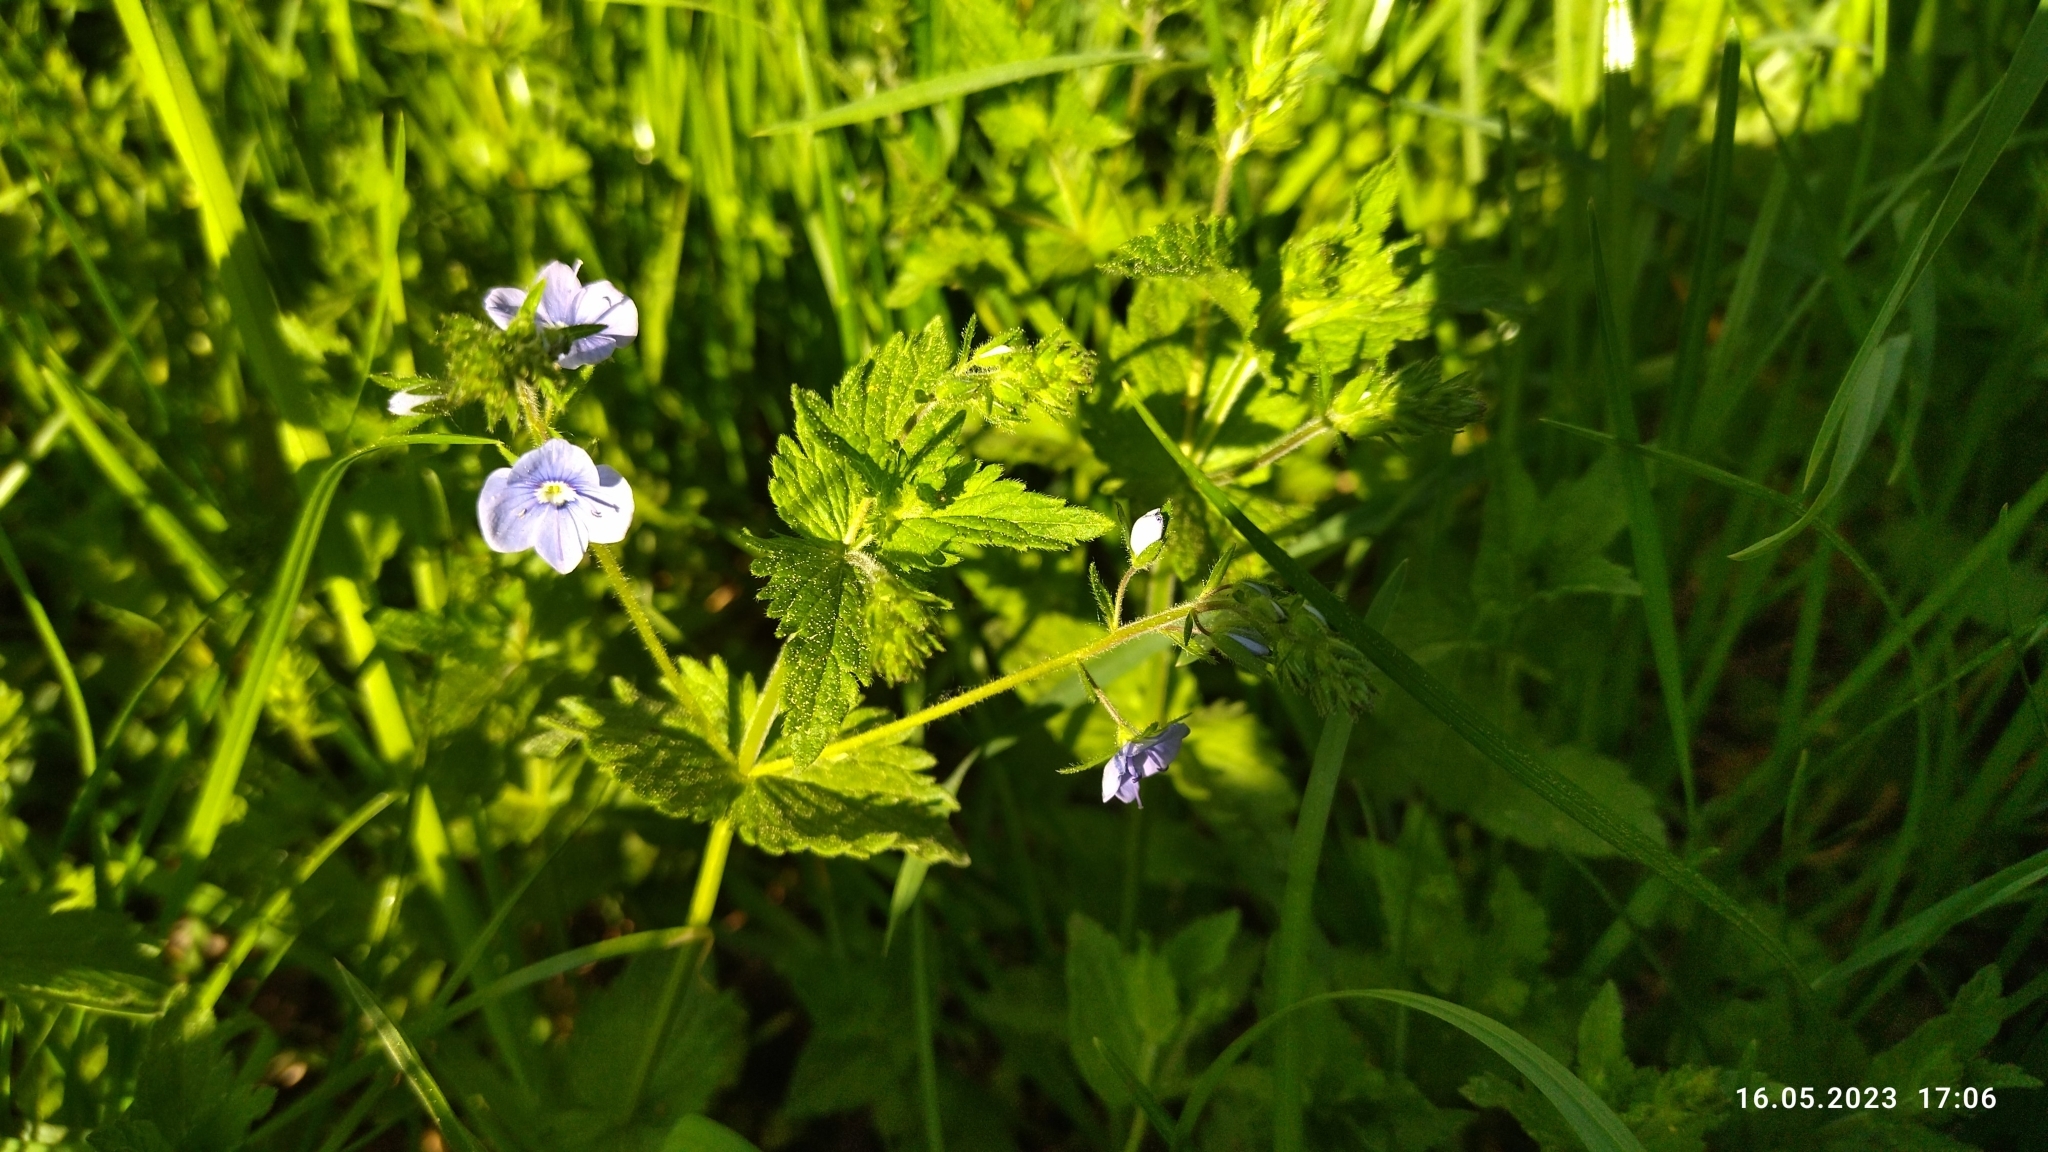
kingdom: Plantae
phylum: Tracheophyta
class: Magnoliopsida
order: Lamiales
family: Plantaginaceae
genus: Veronica
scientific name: Veronica chamaedrys
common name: Germander speedwell
